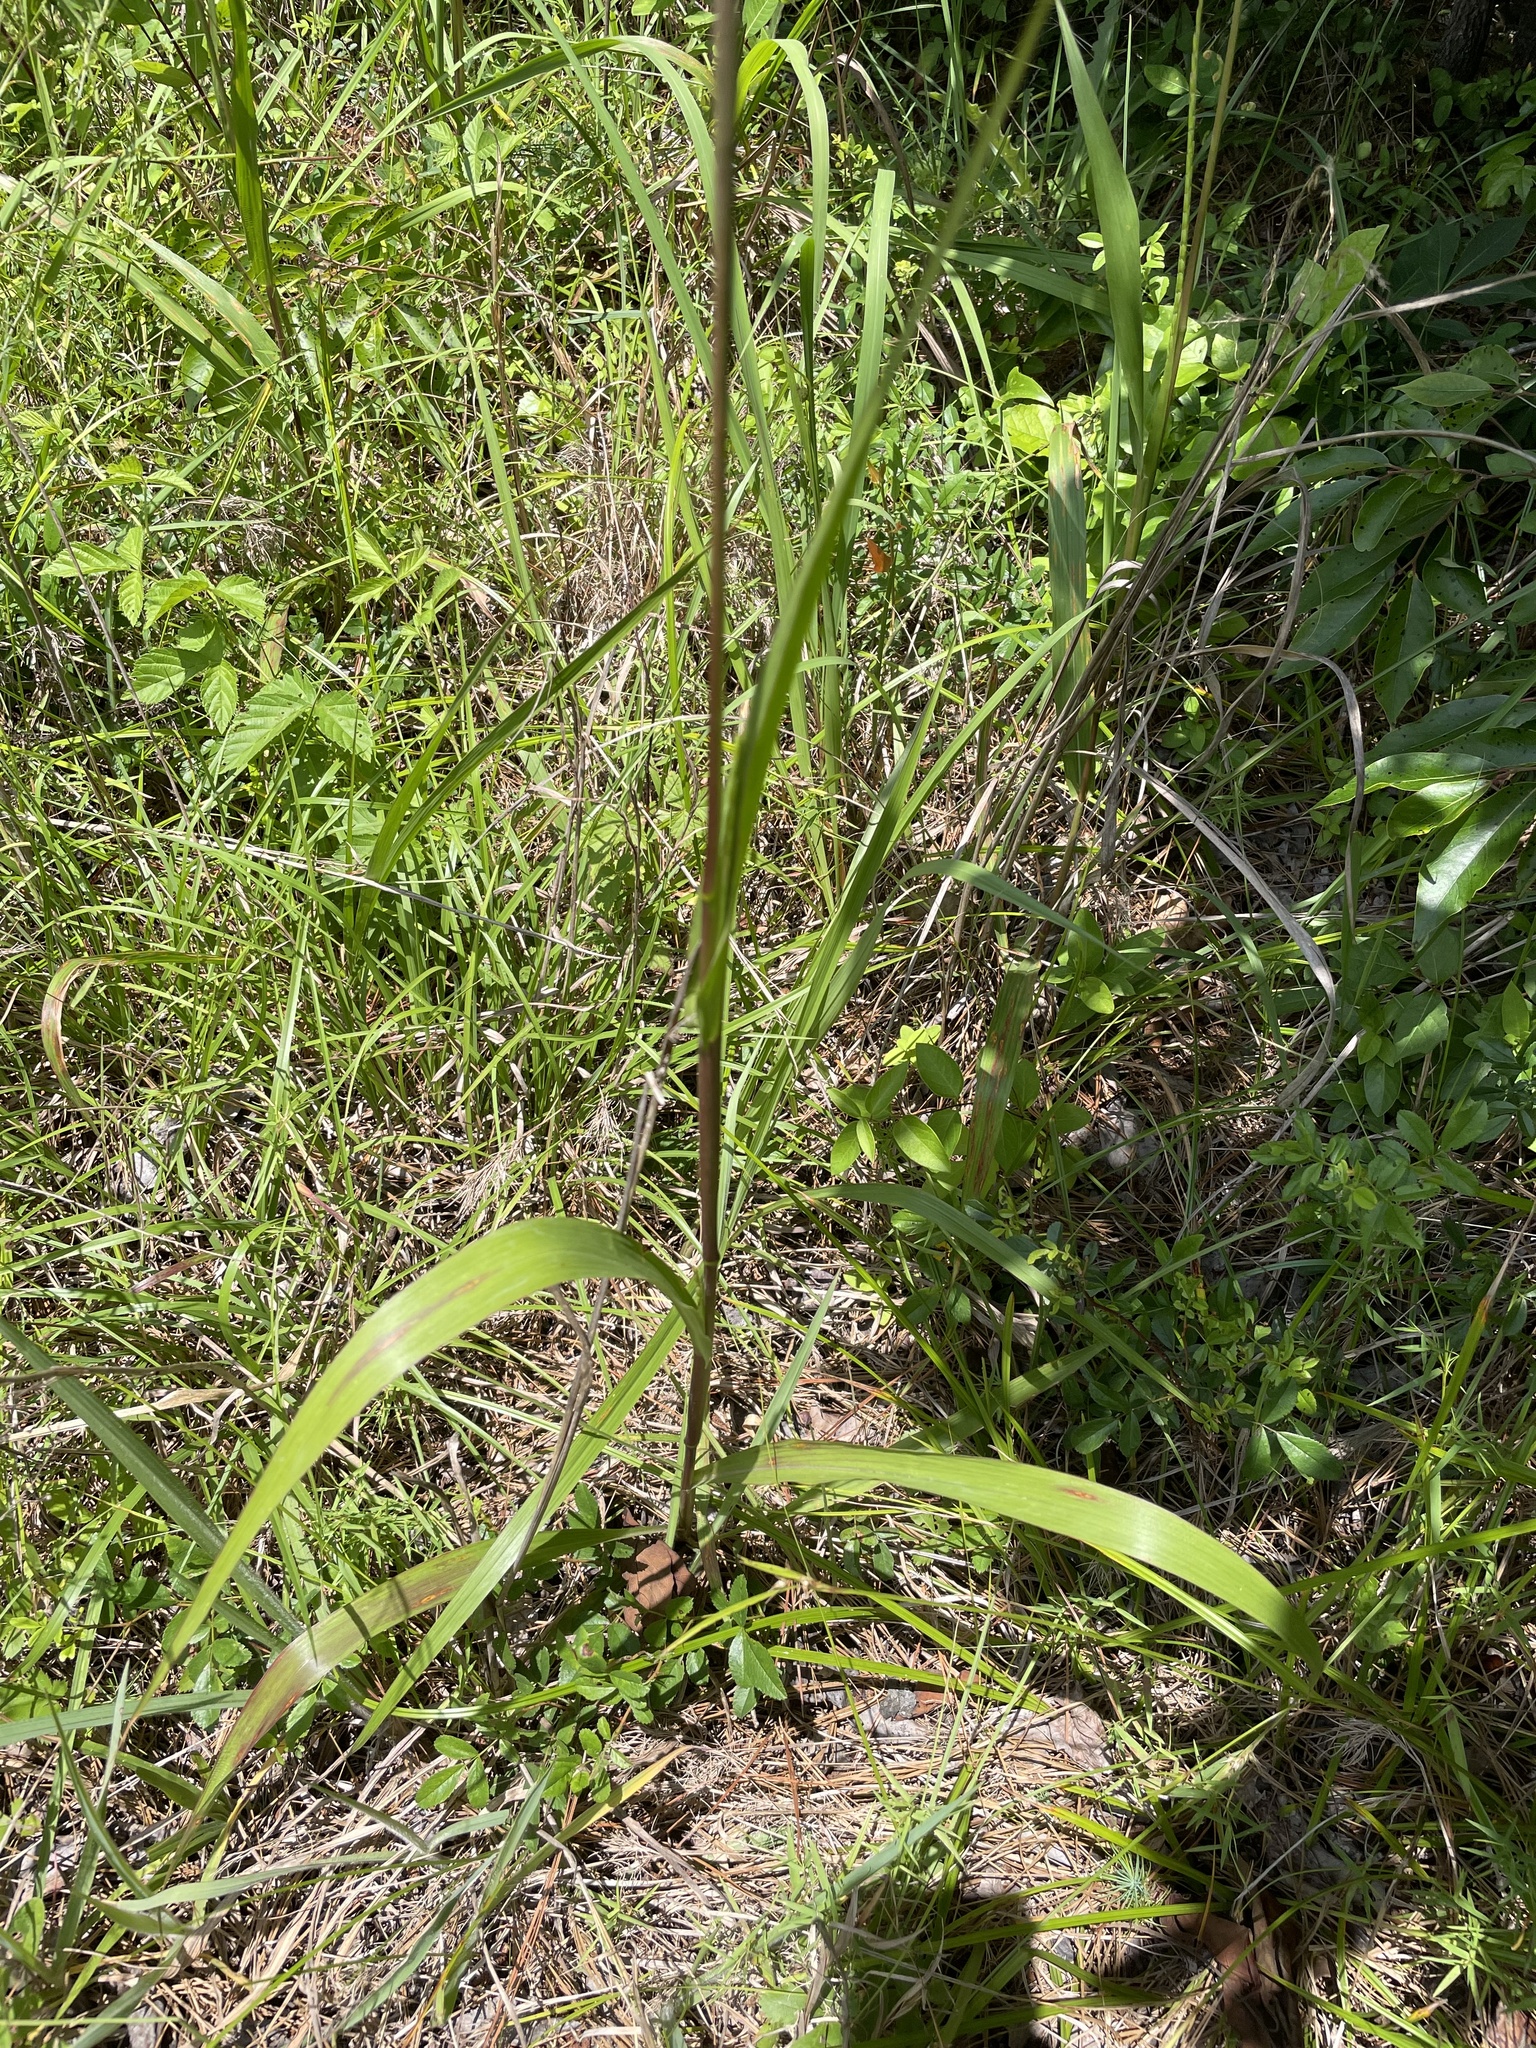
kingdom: Plantae
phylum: Tracheophyta
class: Liliopsida
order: Poales
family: Poaceae
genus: Tripsacum
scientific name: Tripsacum dactyloides
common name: Buffalo-grass
